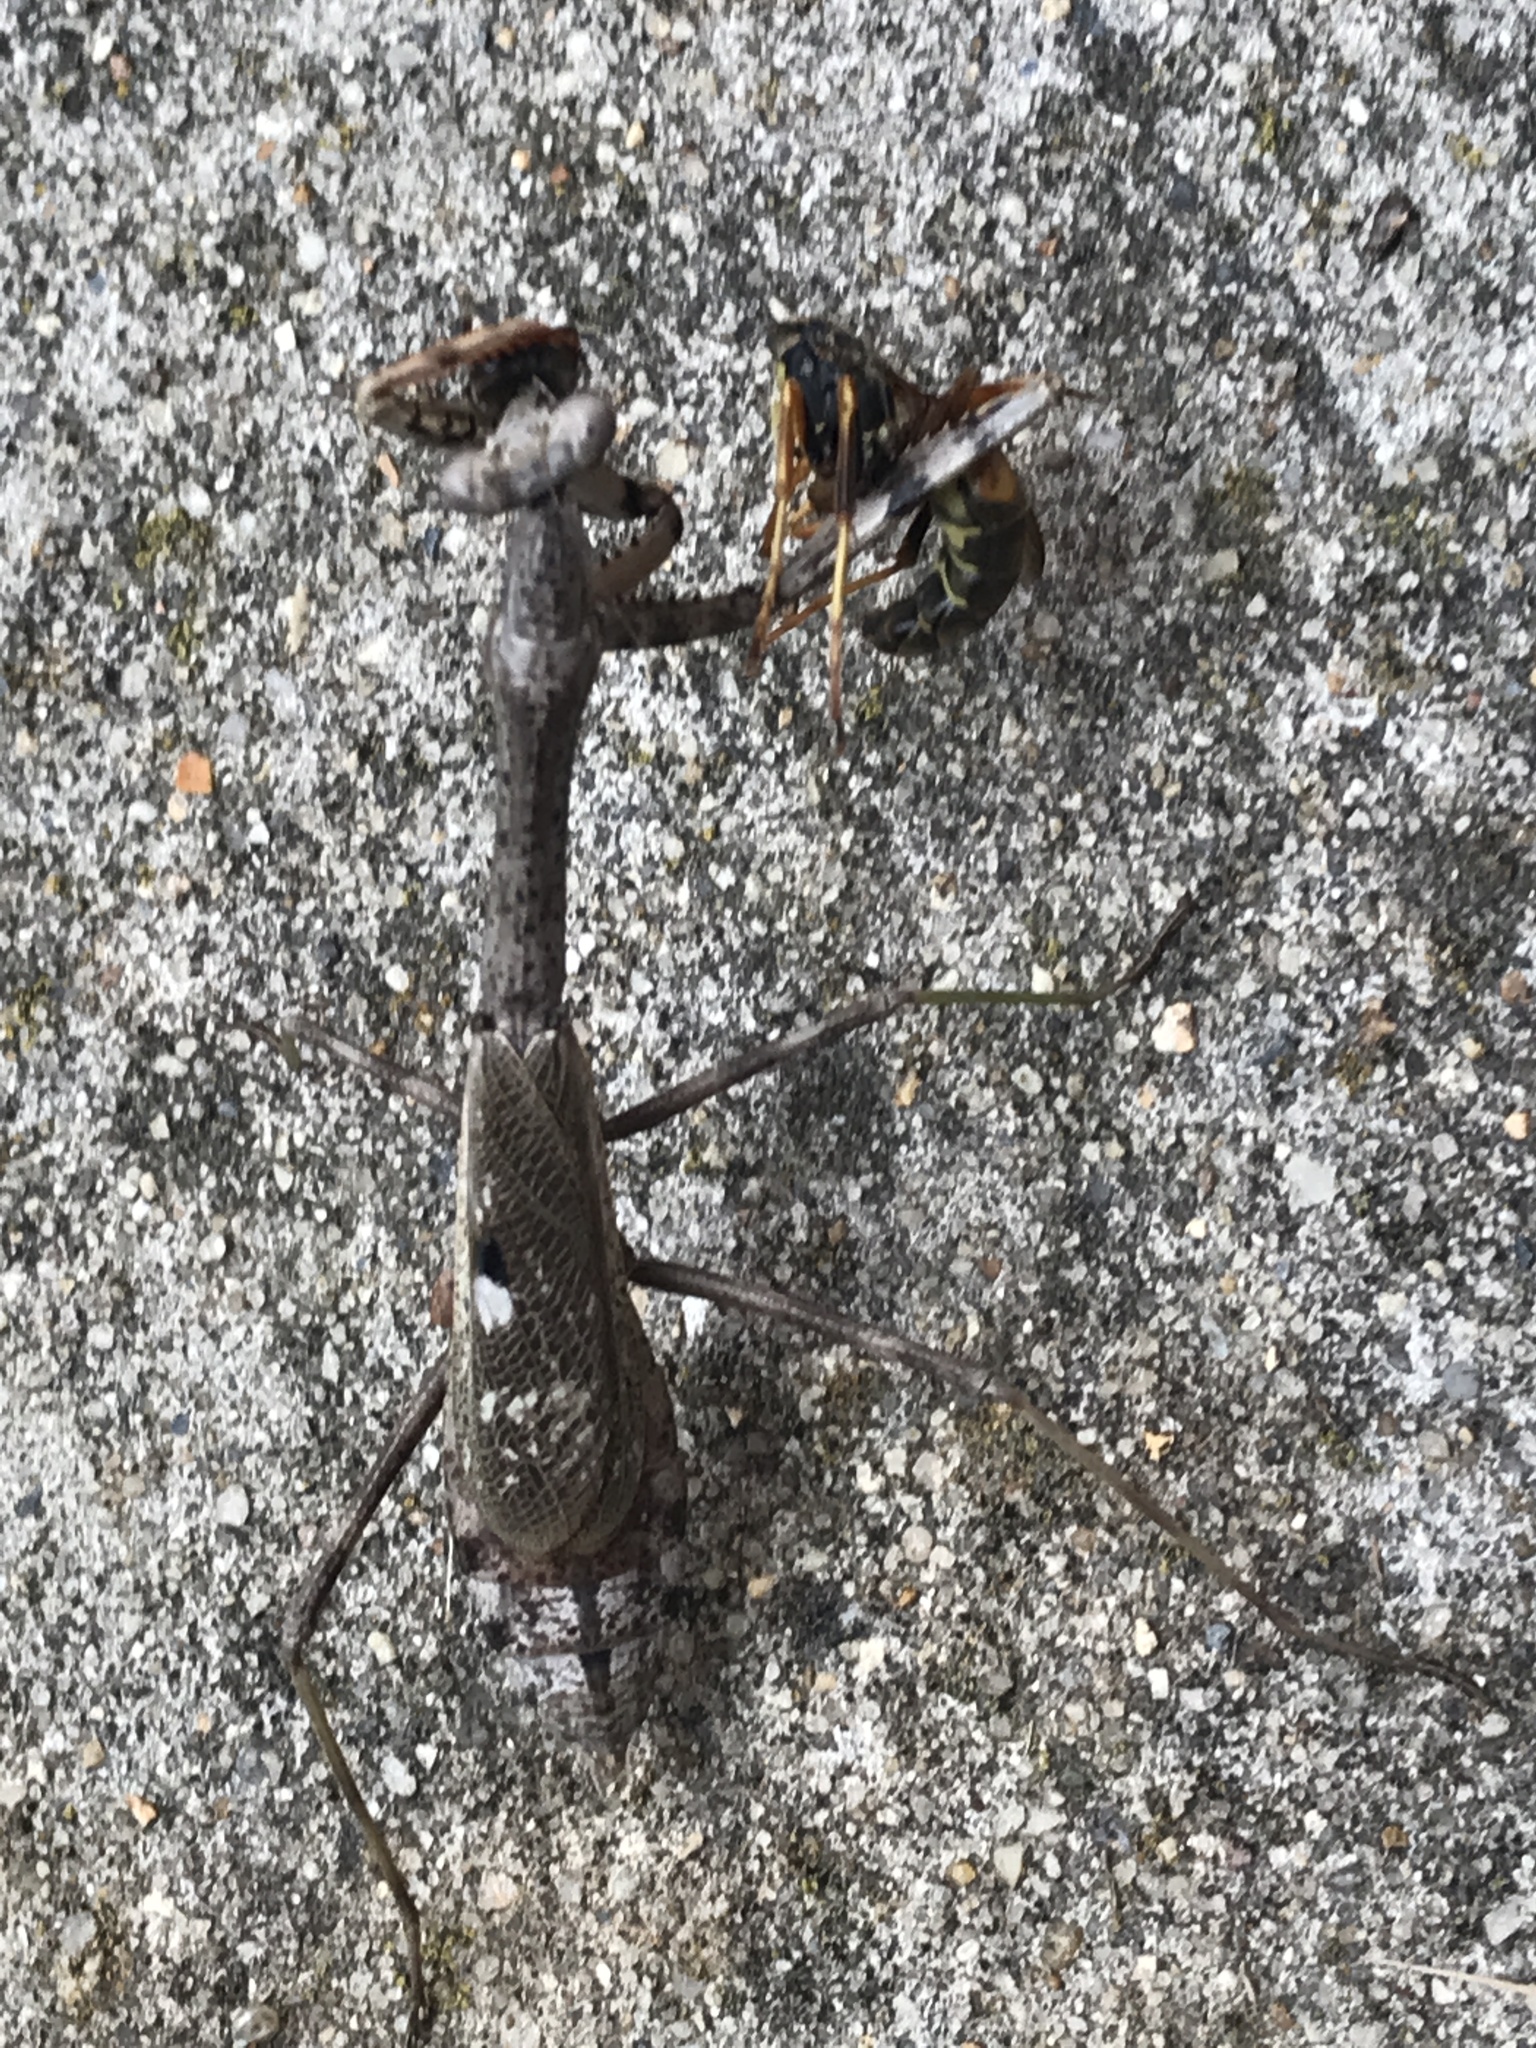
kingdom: Animalia
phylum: Arthropoda
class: Insecta
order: Mantodea
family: Mantidae
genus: Stagmomantis
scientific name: Stagmomantis carolina
